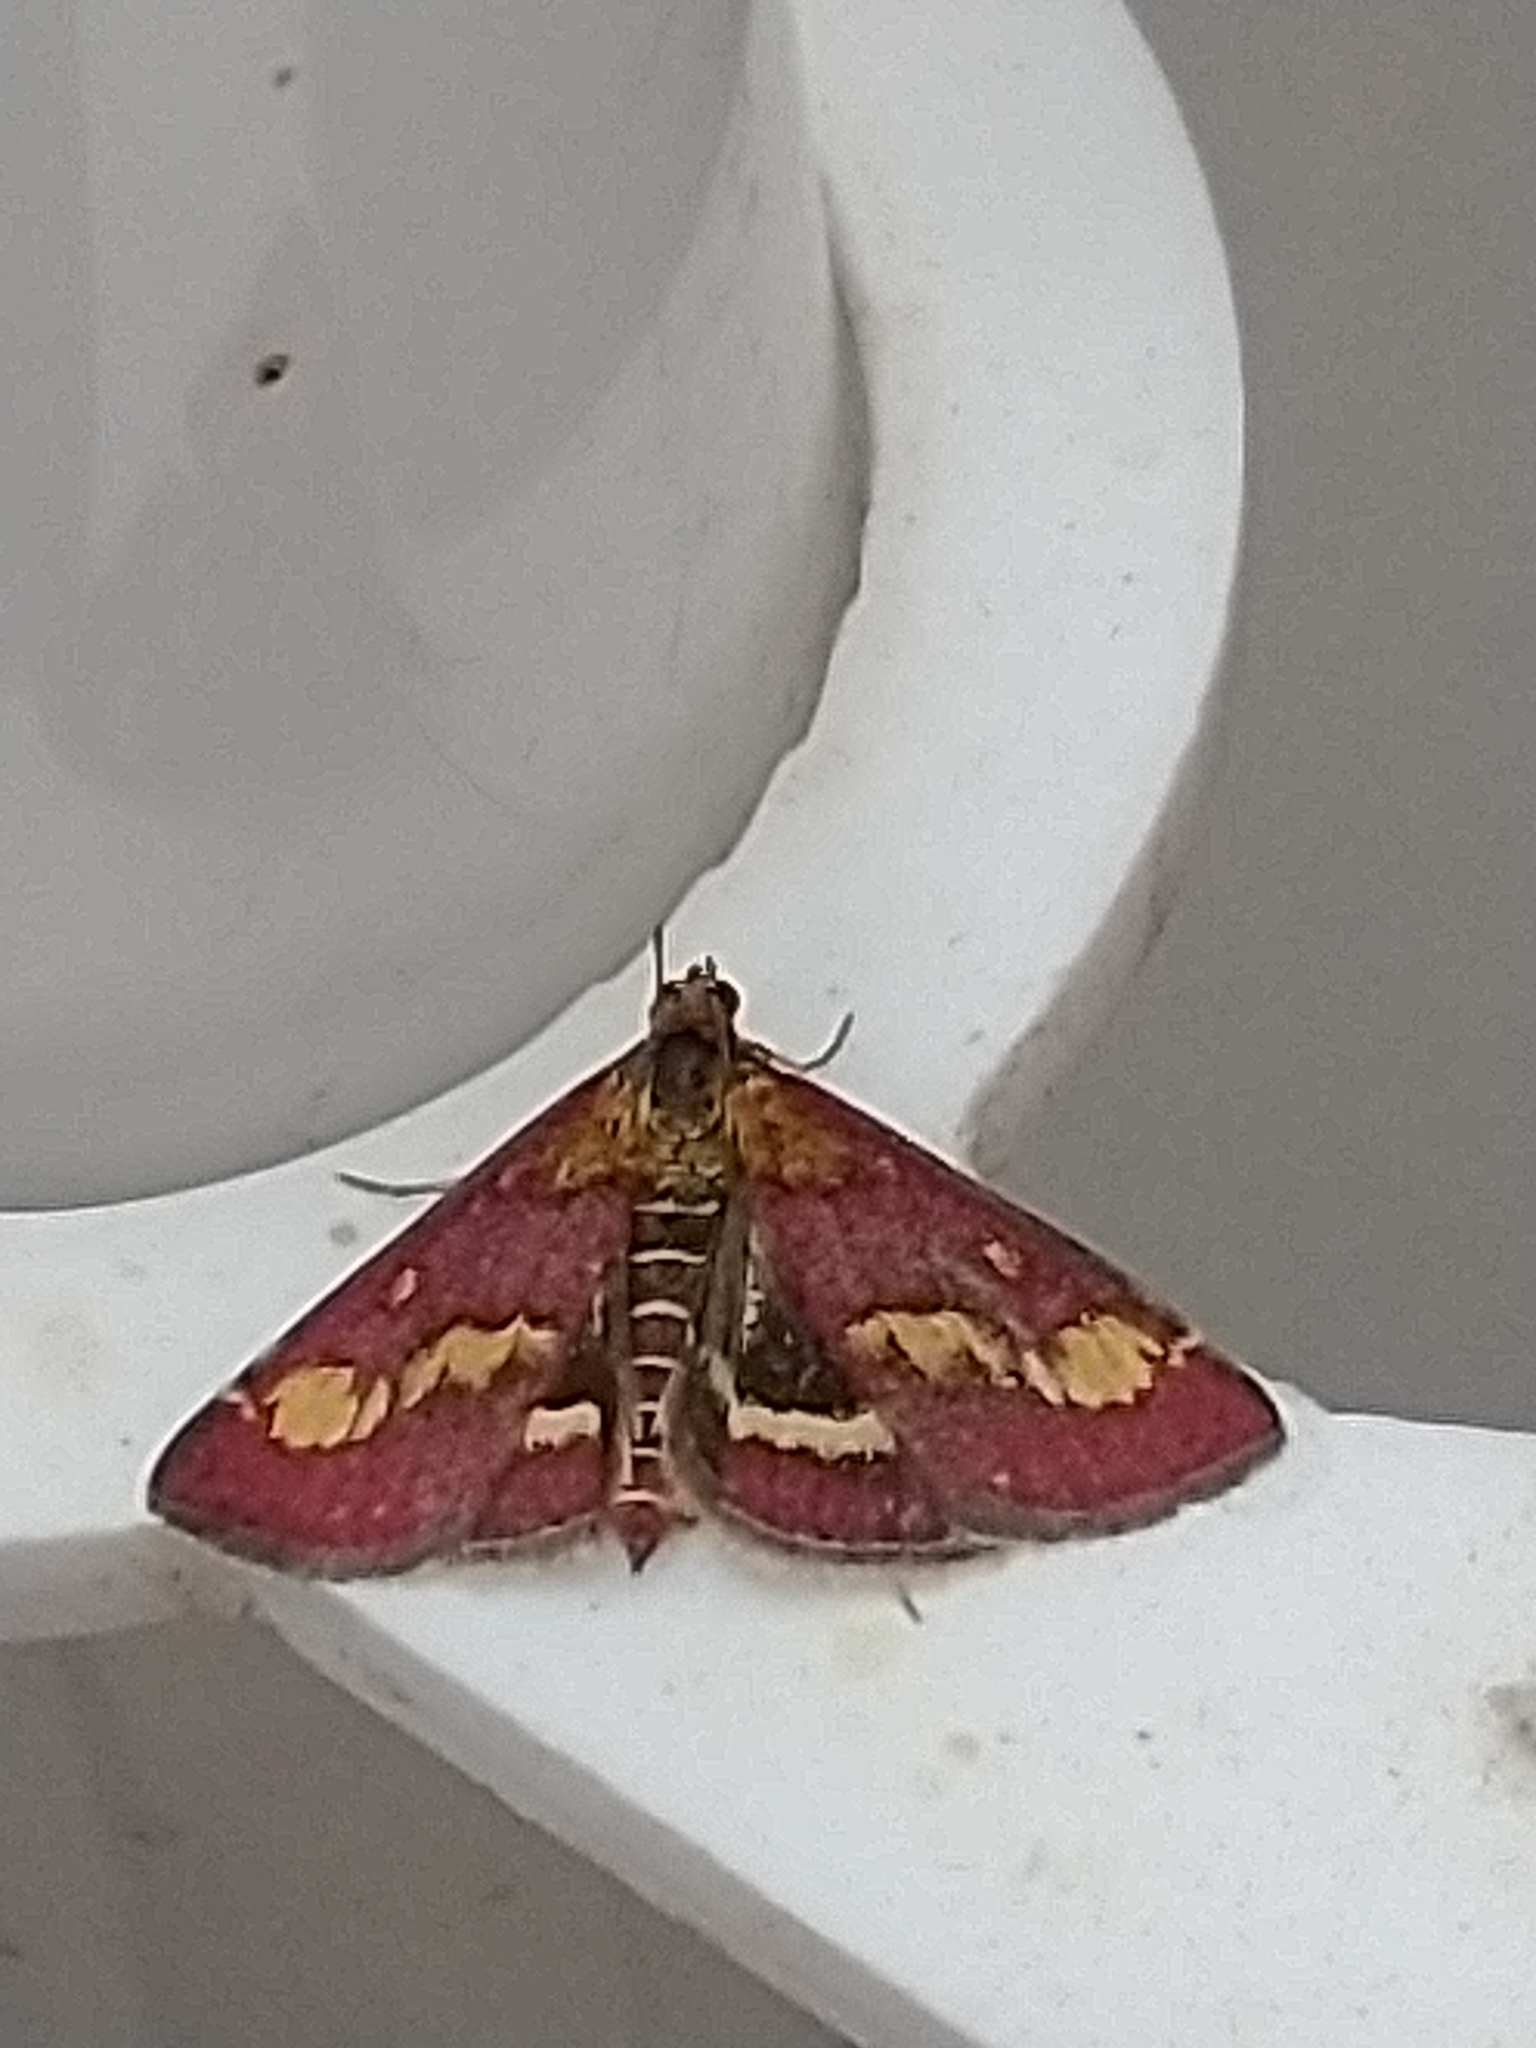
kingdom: Animalia
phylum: Arthropoda
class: Insecta
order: Lepidoptera
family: Crambidae
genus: Pyrausta
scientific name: Pyrausta purpuralis
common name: Common purple & gold
